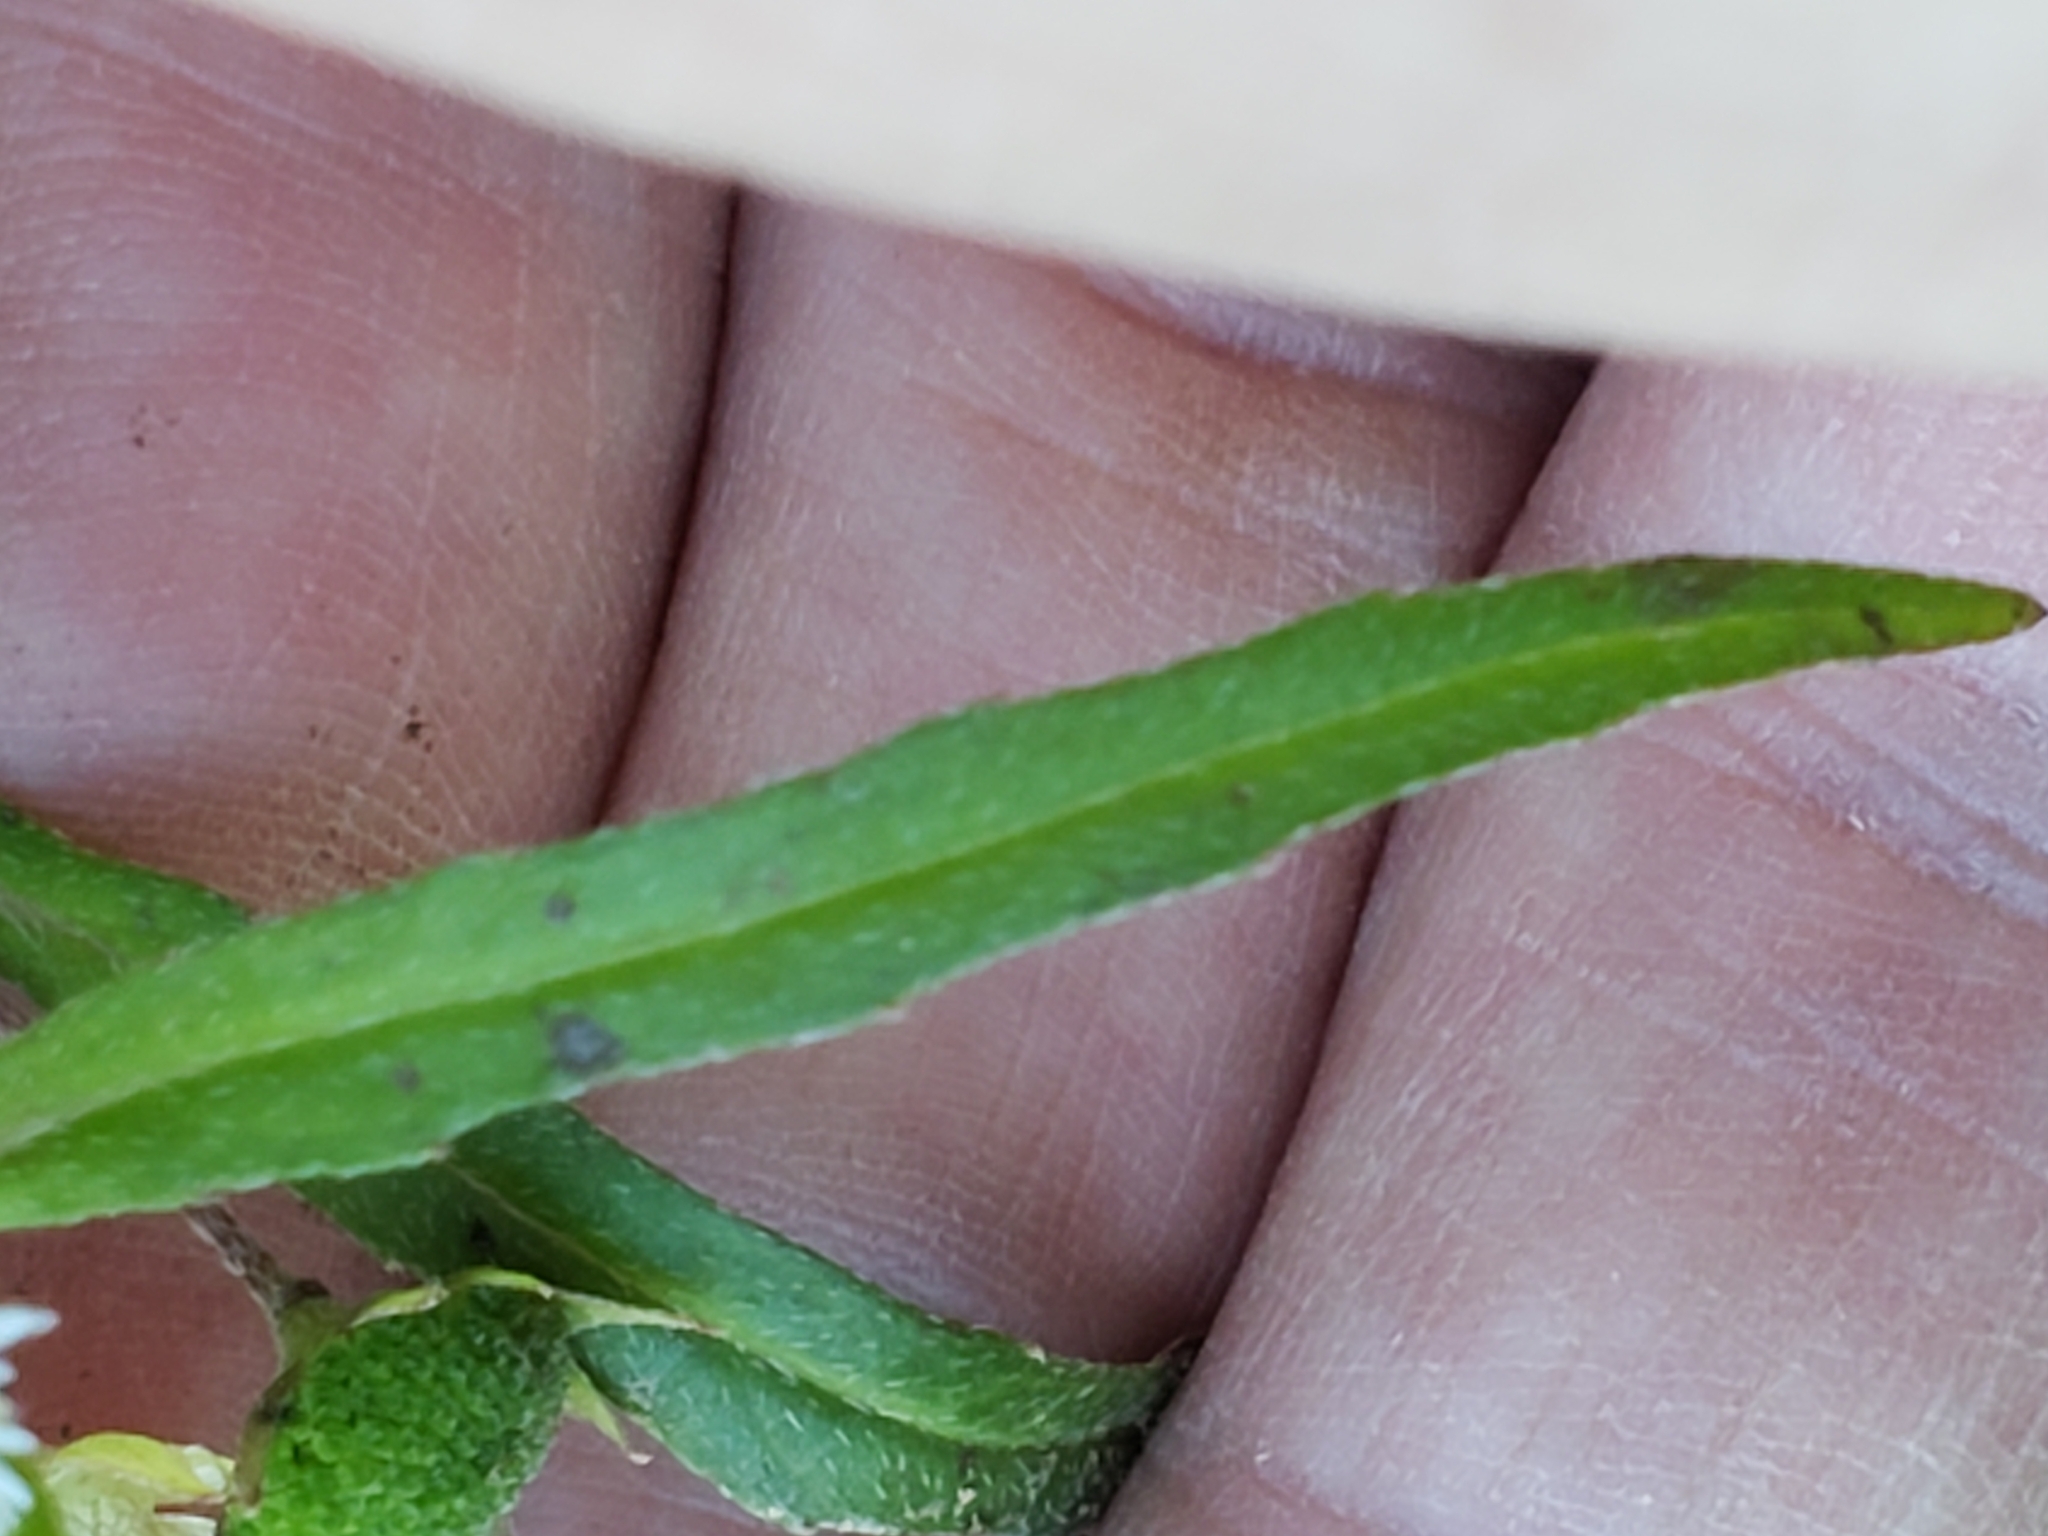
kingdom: Plantae
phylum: Tracheophyta
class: Magnoliopsida
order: Asterales
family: Asteraceae
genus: Conoclinium
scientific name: Conoclinium coelestinum
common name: Blue mistflower
